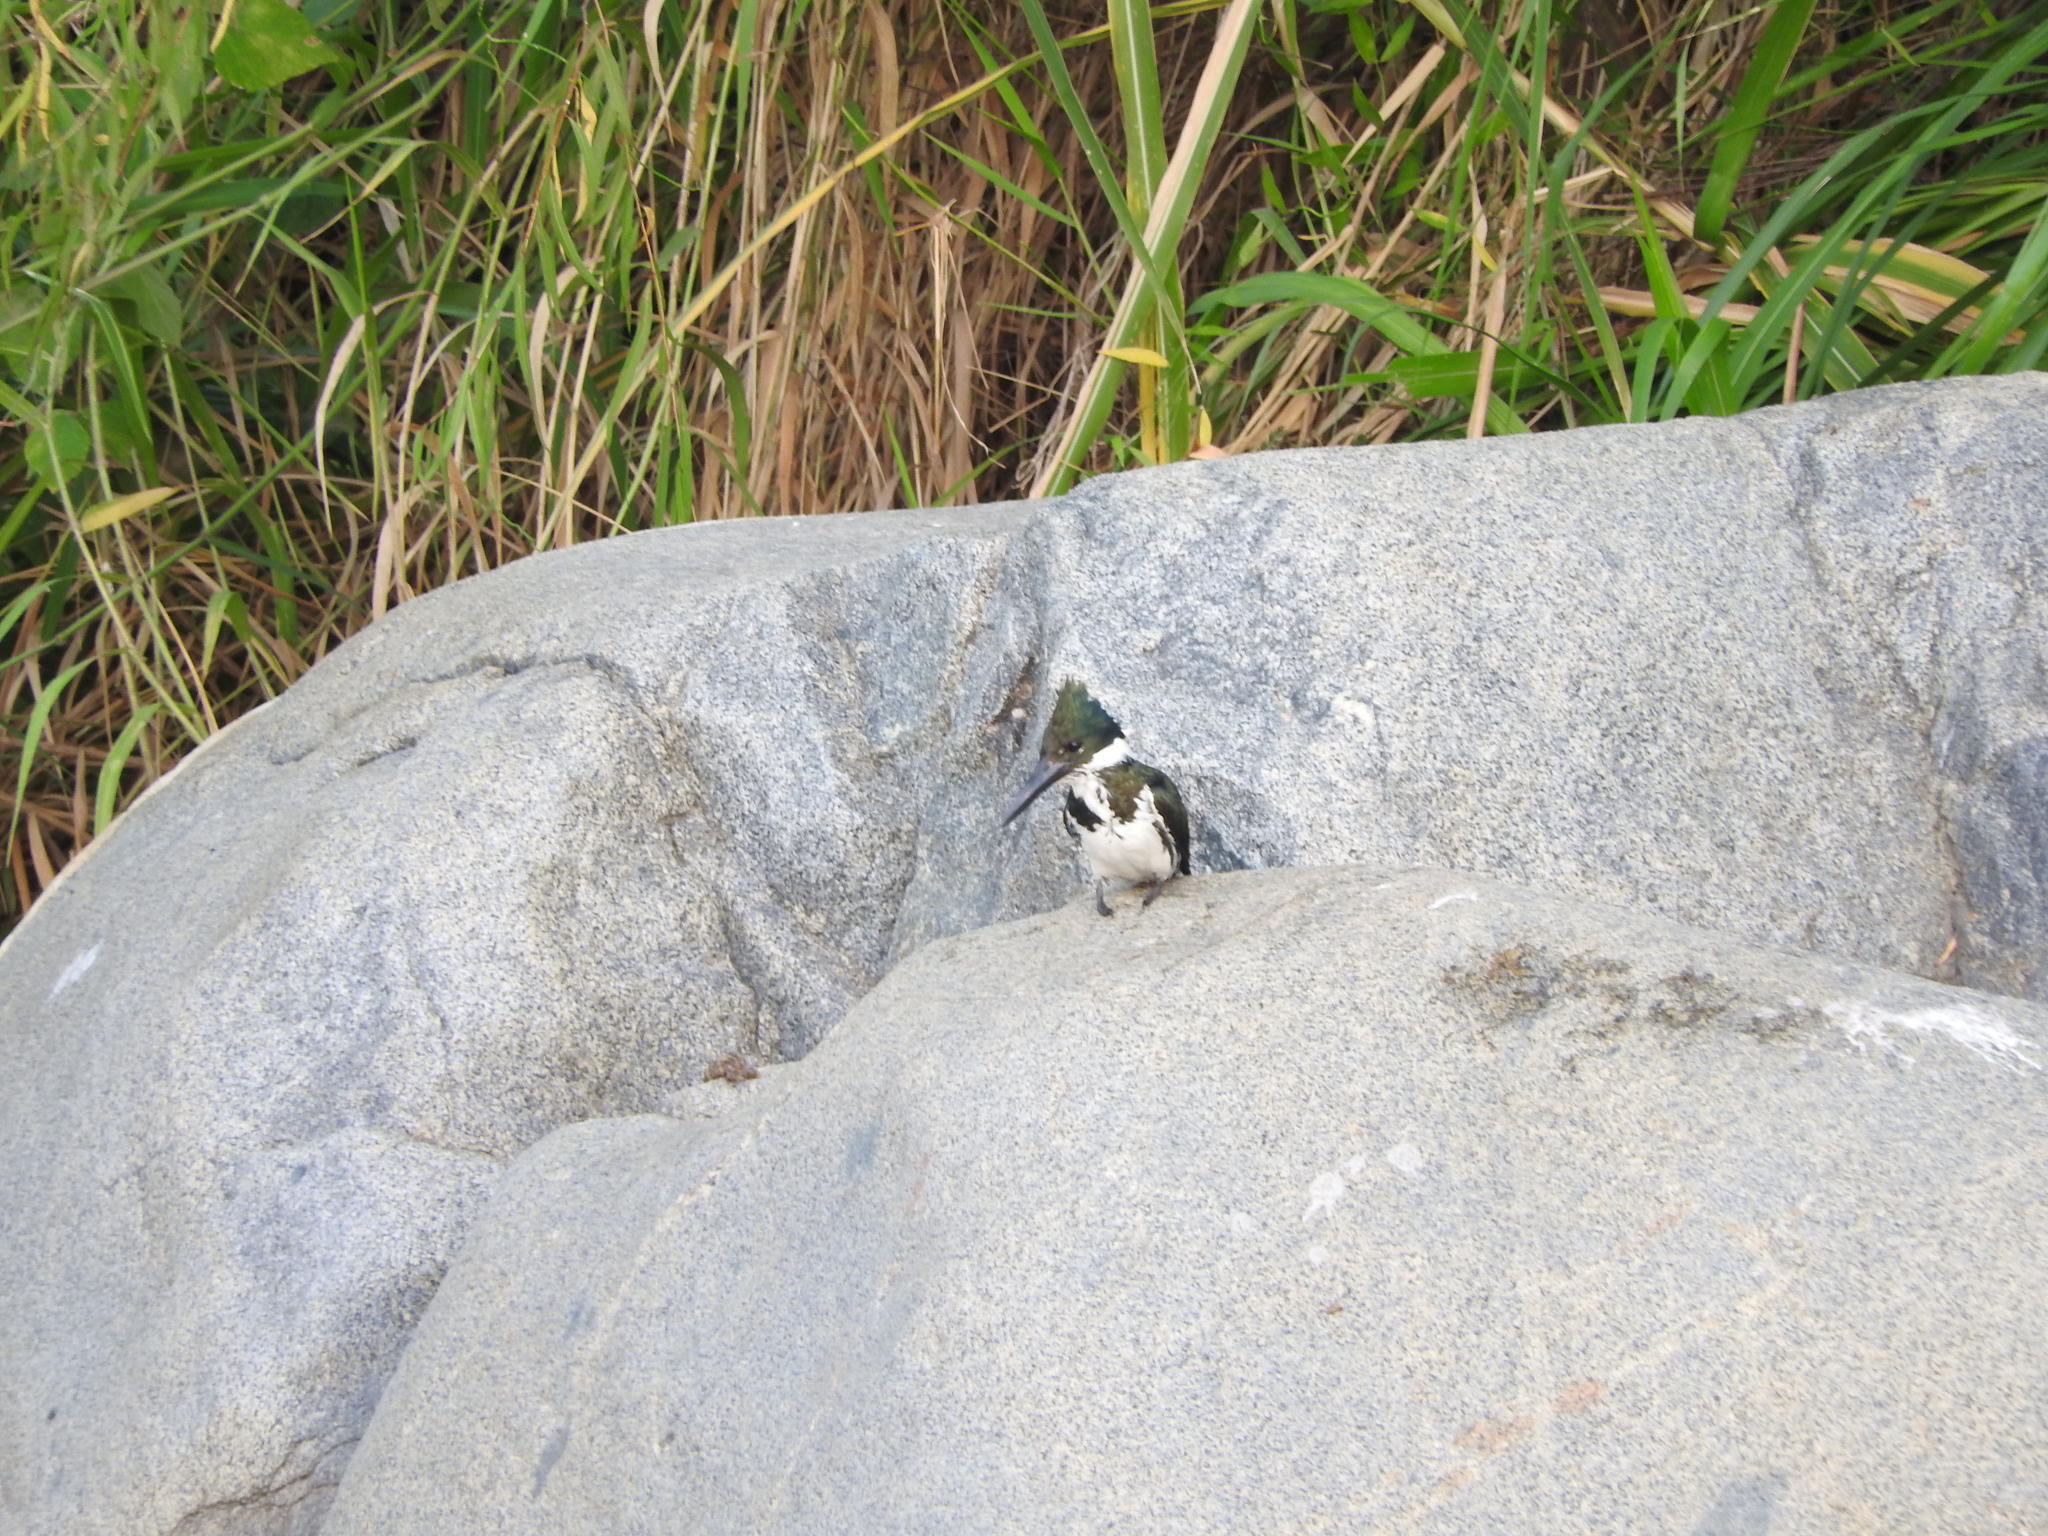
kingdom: Animalia
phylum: Chordata
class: Aves
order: Coraciiformes
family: Alcedinidae
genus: Chloroceryle
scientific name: Chloroceryle amazona
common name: Amazon kingfisher
